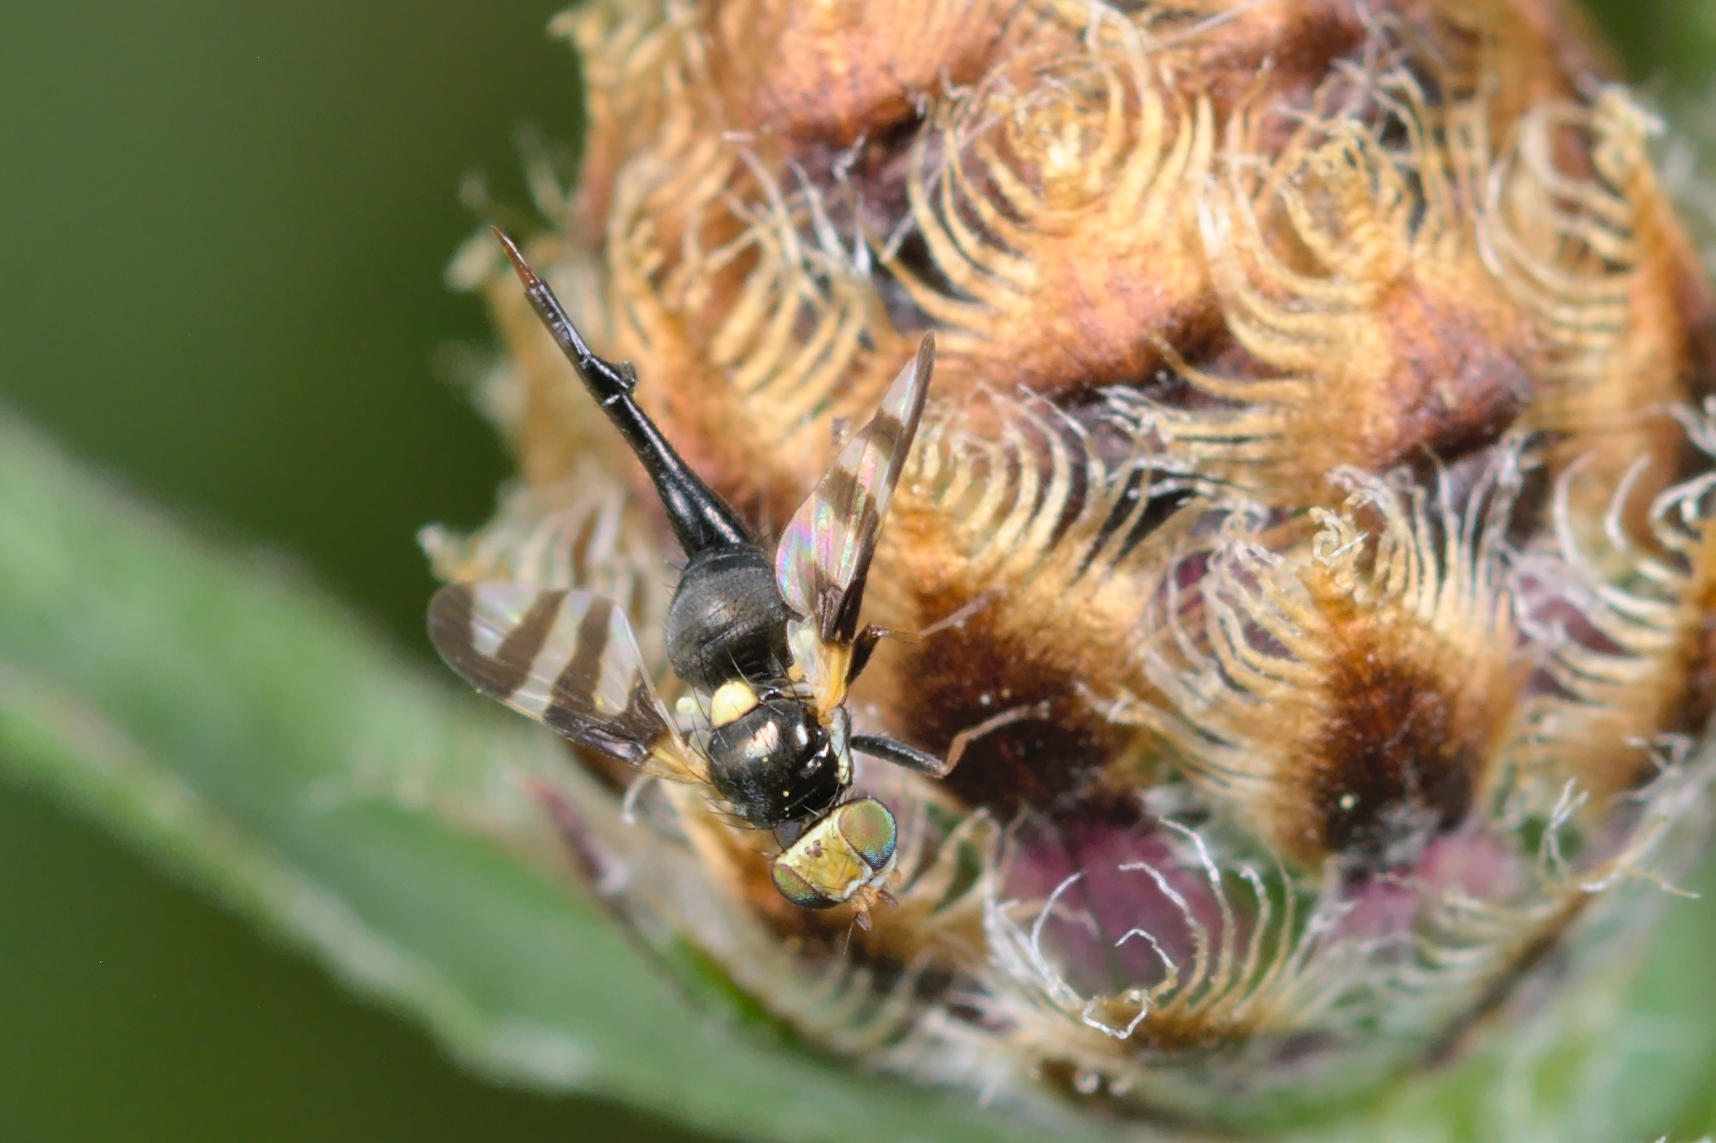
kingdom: Animalia
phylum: Arthropoda
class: Insecta
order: Diptera
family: Tephritidae
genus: Urophora
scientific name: Urophora quadrifasciata
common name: Knapweed seedhead fly
